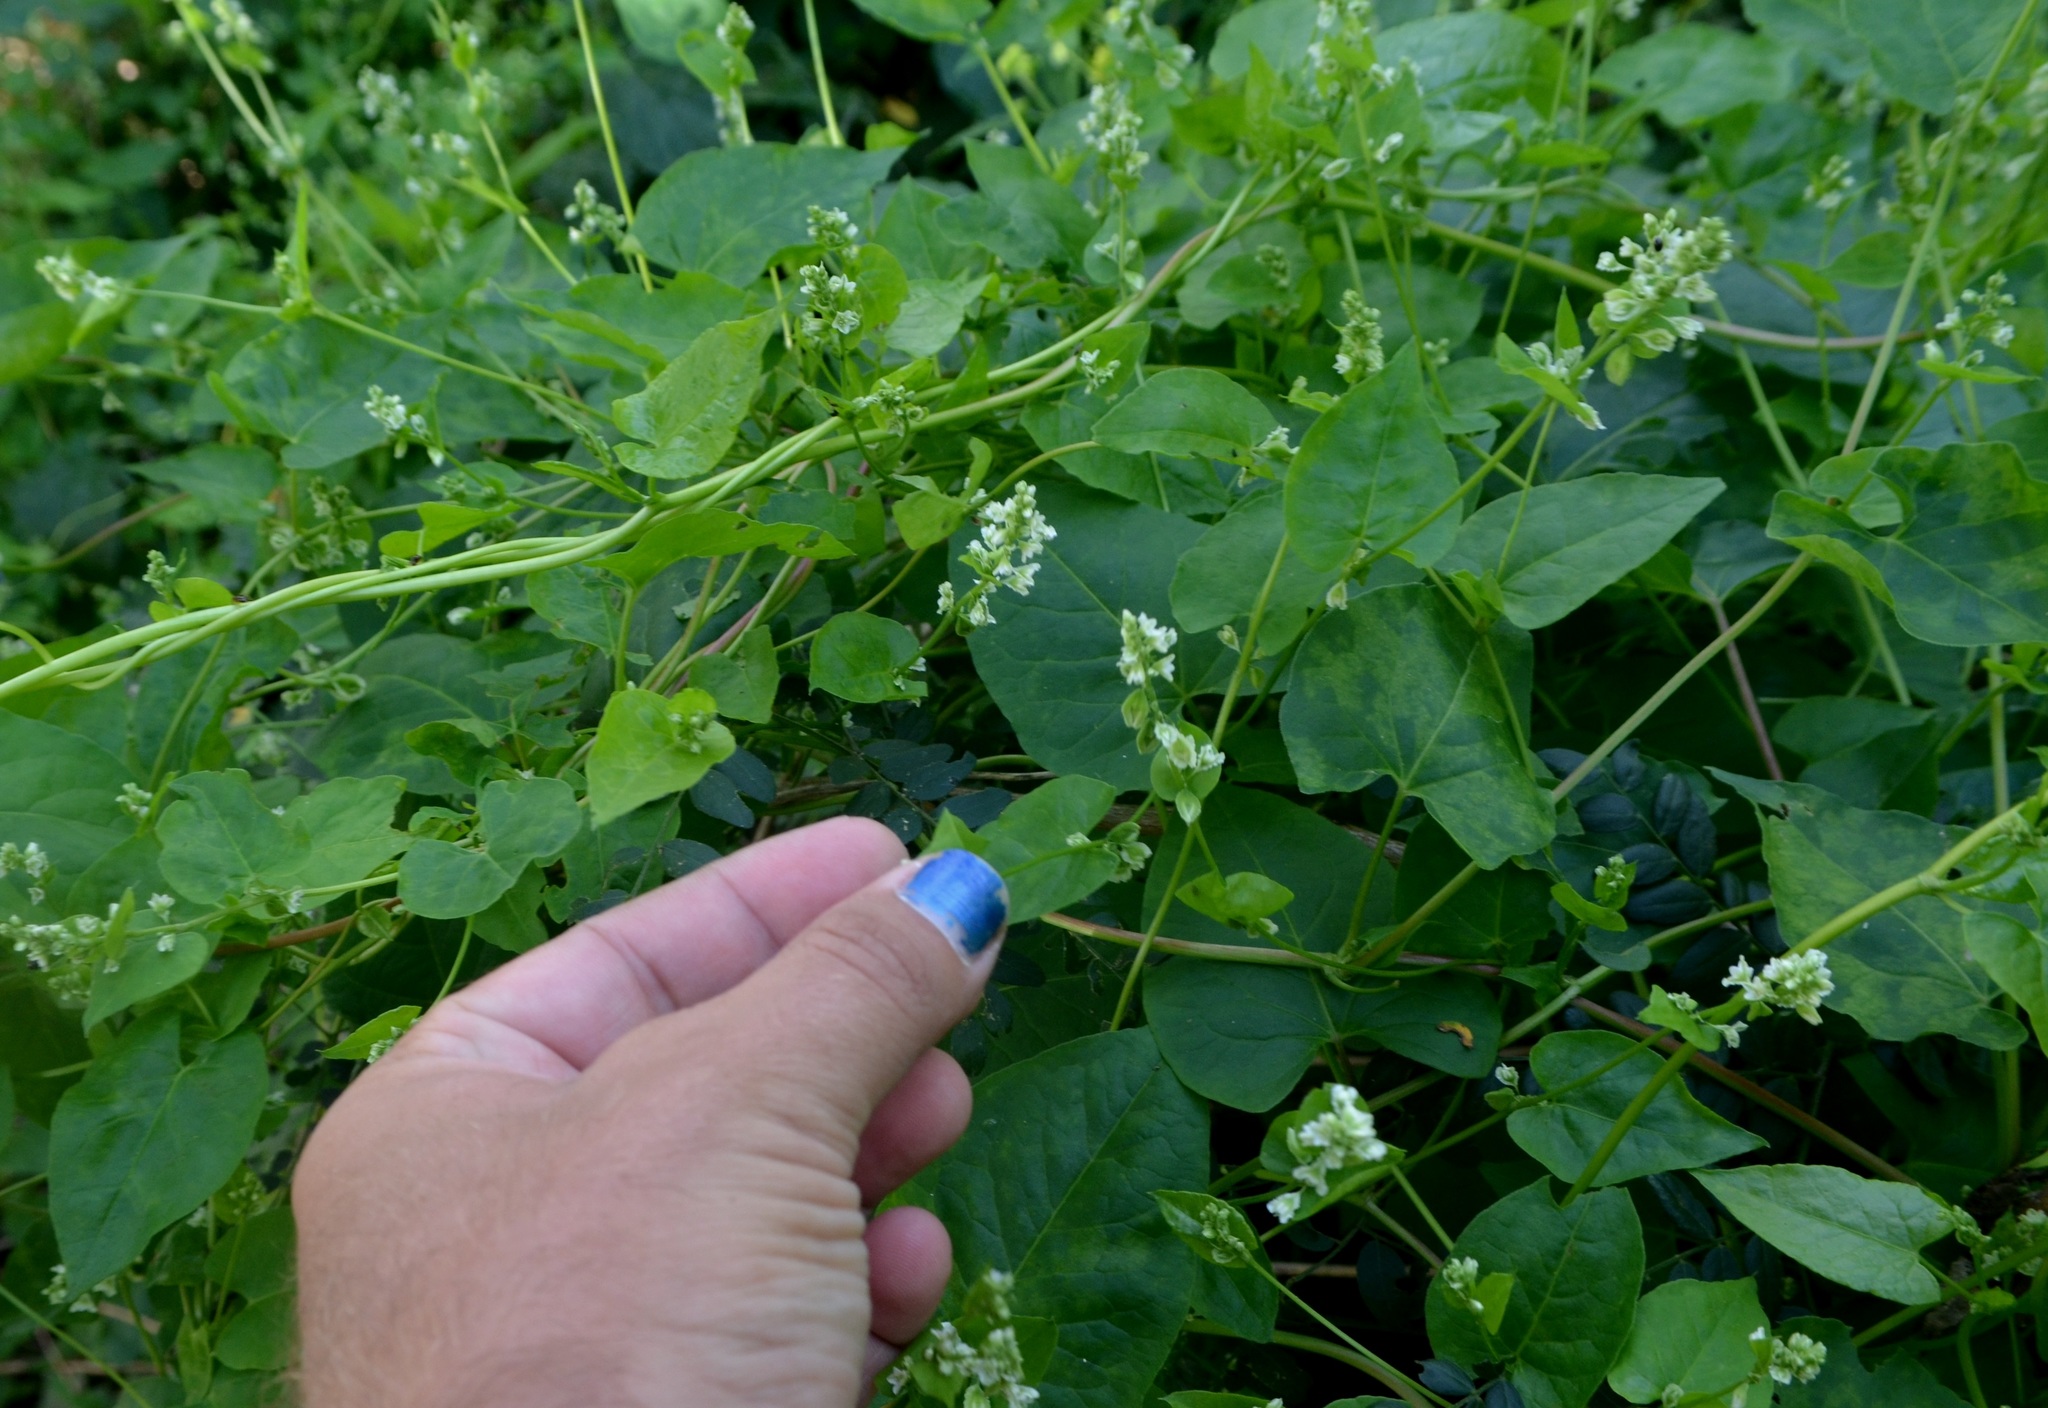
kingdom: Plantae
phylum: Tracheophyta
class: Magnoliopsida
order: Caryophyllales
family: Polygonaceae
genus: Fallopia
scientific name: Fallopia scandens
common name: Climbing false buckwheat
